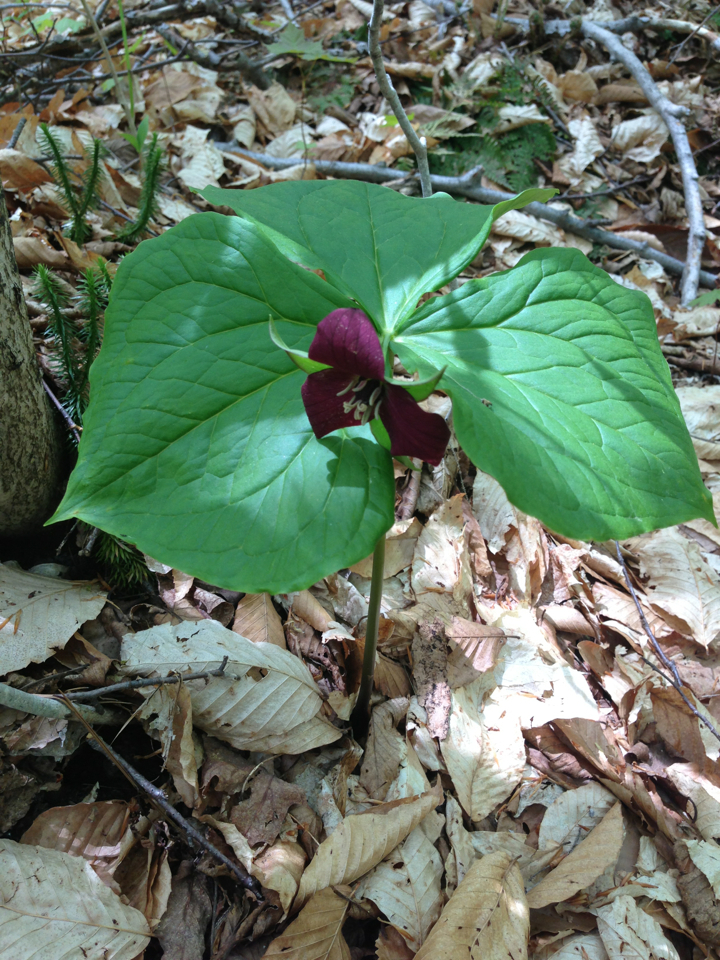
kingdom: Plantae
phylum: Tracheophyta
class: Liliopsida
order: Liliales
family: Melanthiaceae
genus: Trillium
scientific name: Trillium erectum
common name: Purple trillium
